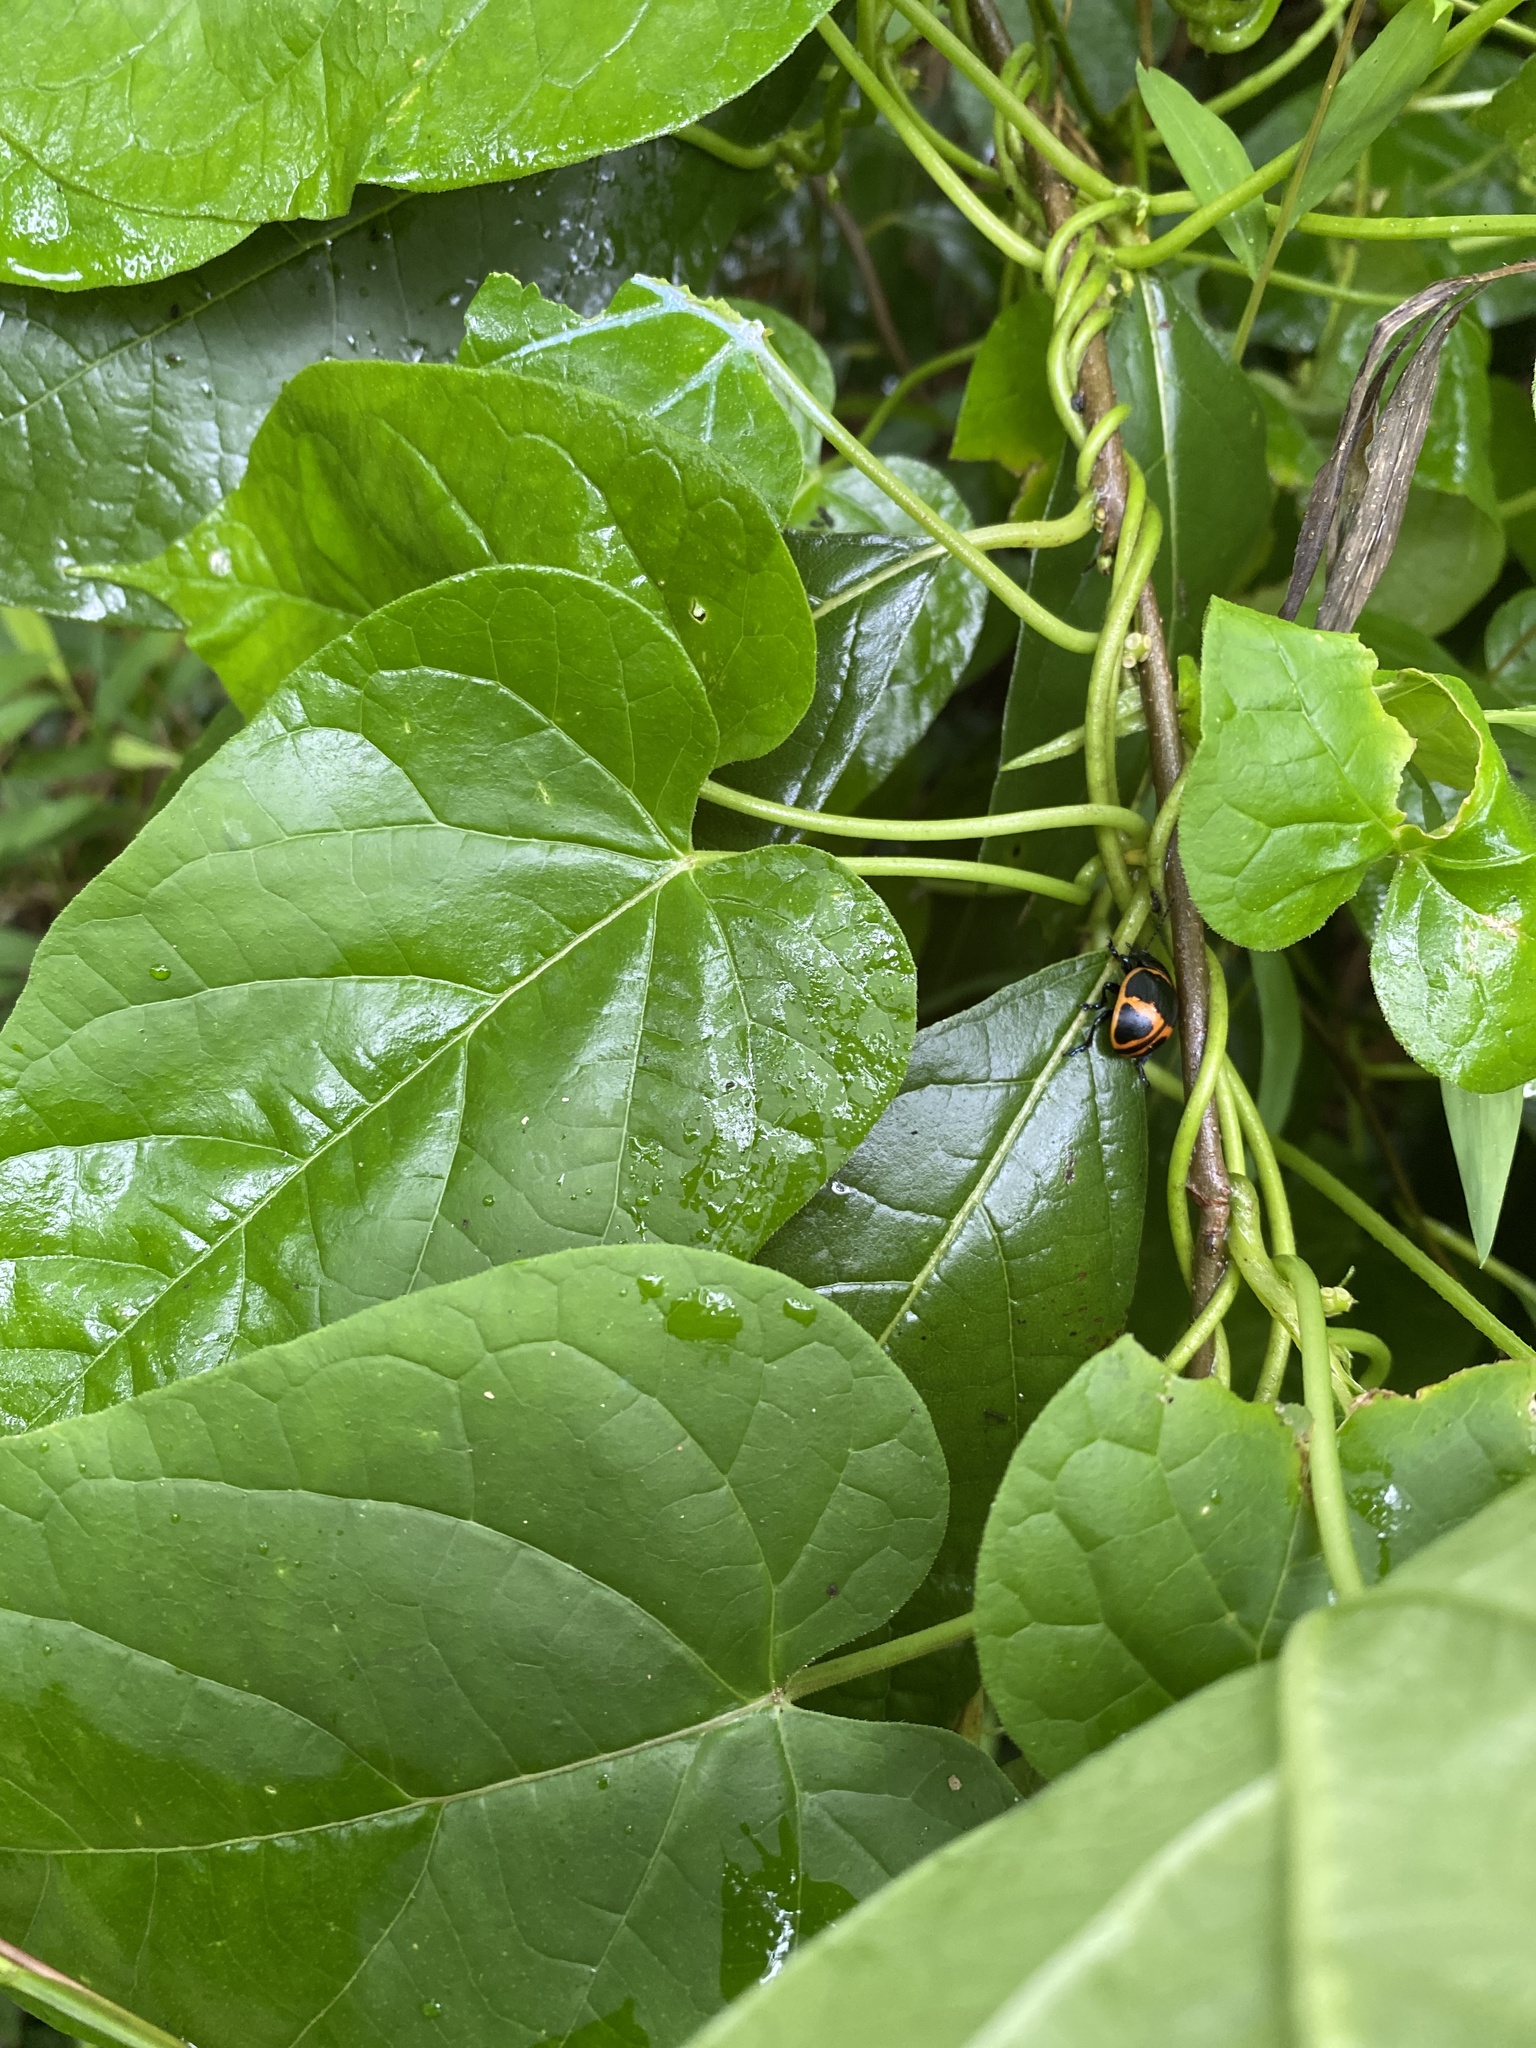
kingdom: Animalia
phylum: Arthropoda
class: Insecta
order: Coleoptera
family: Chrysomelidae
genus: Labidomera
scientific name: Labidomera clivicollis
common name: Swamp milkweed leaf beetle
